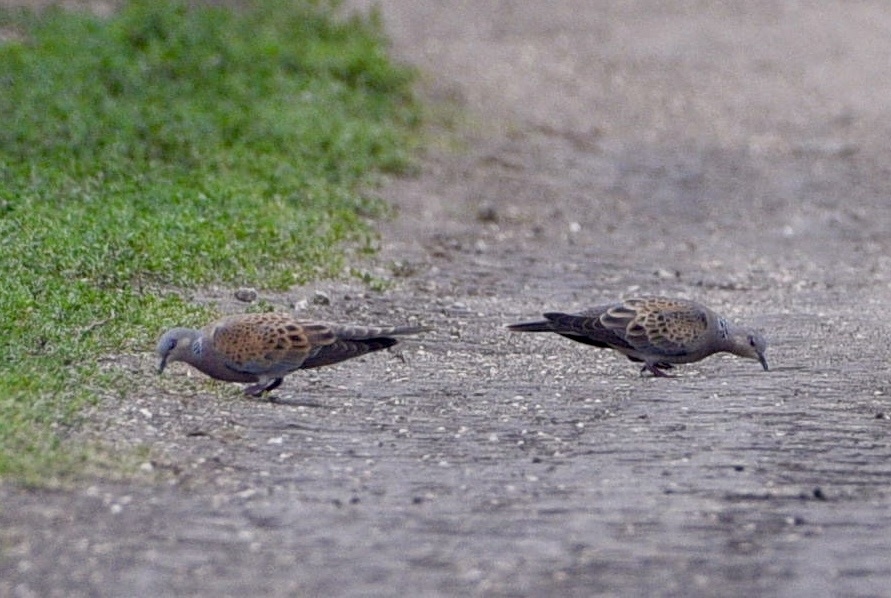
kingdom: Animalia
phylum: Chordata
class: Aves
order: Columbiformes
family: Columbidae
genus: Streptopelia
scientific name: Streptopelia turtur
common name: European turtle dove
